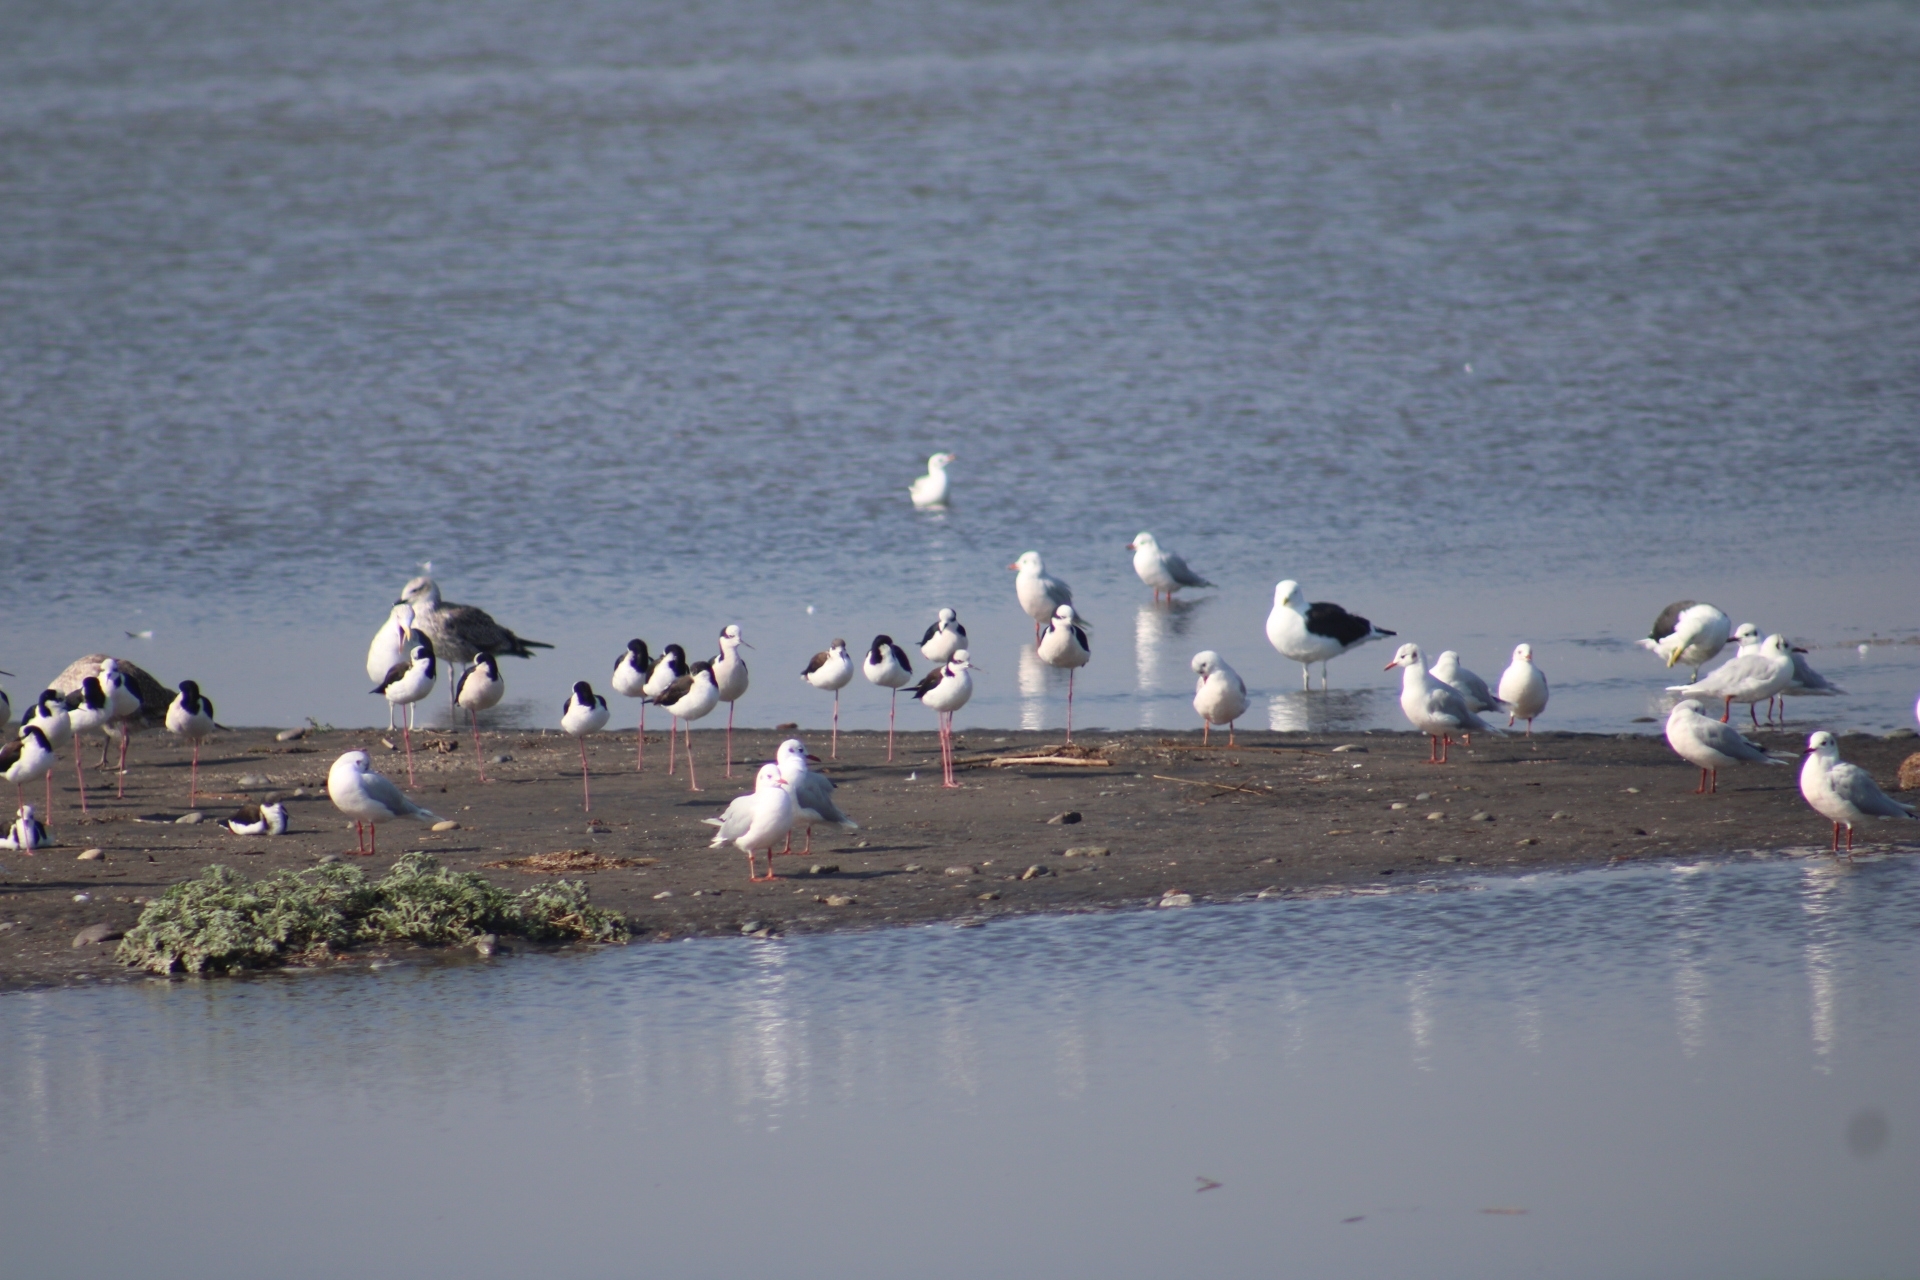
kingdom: Animalia
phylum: Chordata
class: Aves
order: Charadriiformes
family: Recurvirostridae
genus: Himantopus
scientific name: Himantopus mexicanus
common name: Black-necked stilt
